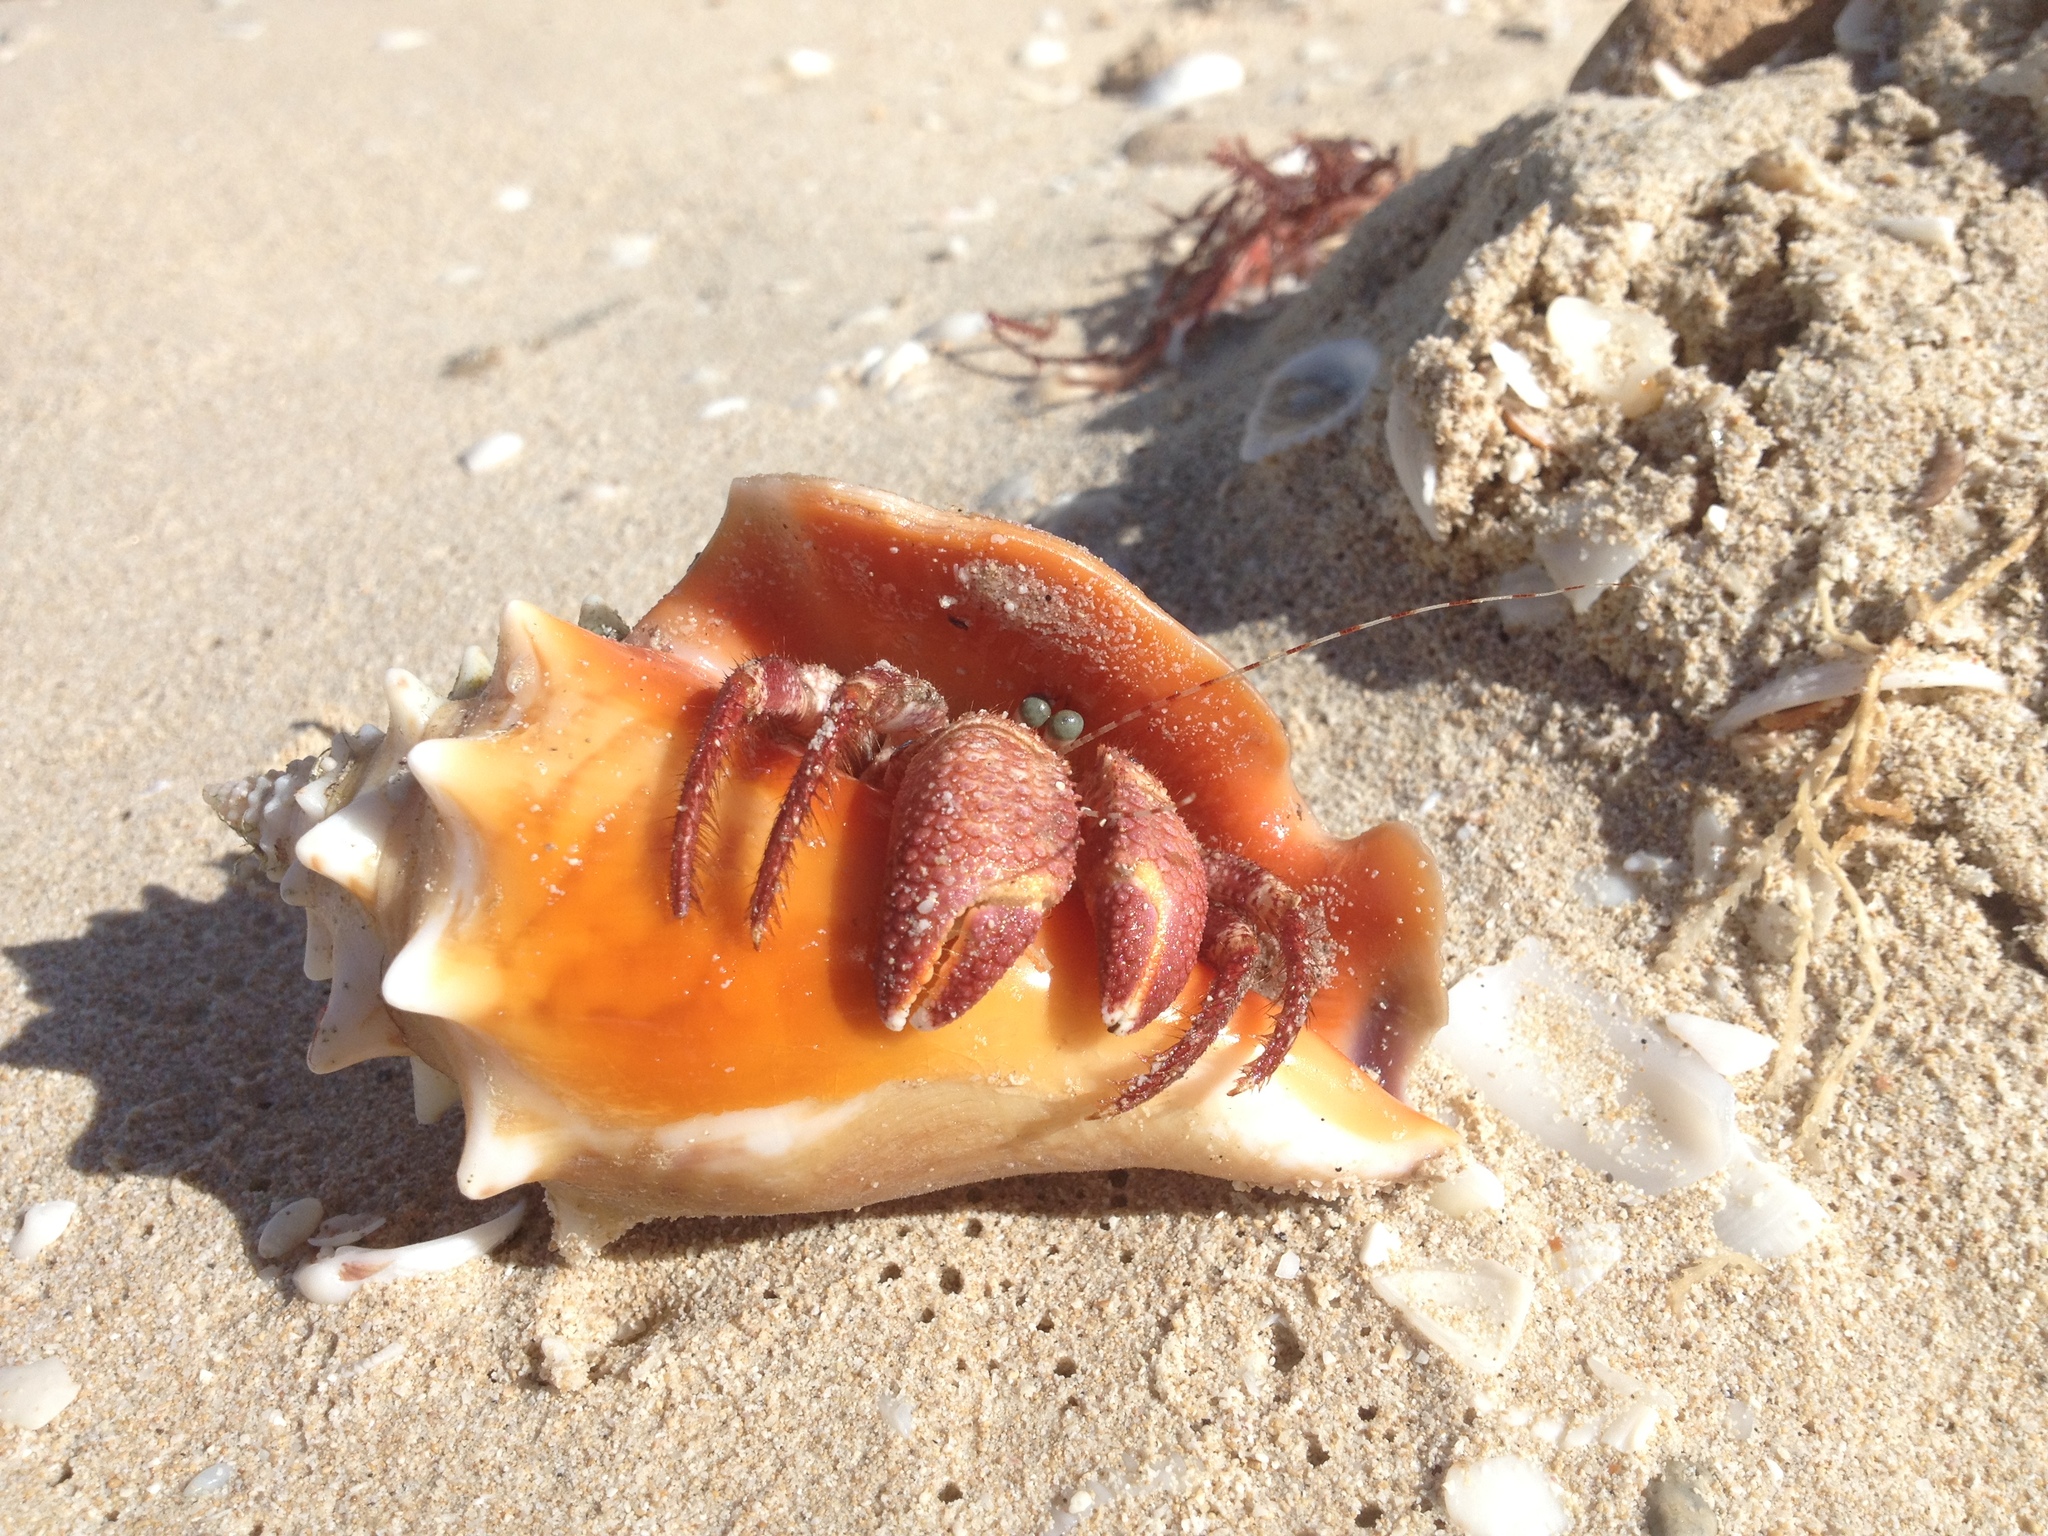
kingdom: Animalia
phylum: Arthropoda
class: Malacostraca
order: Decapoda
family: Diogenidae
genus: Petrochirus
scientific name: Petrochirus diogenes
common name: Giant hermit crab
